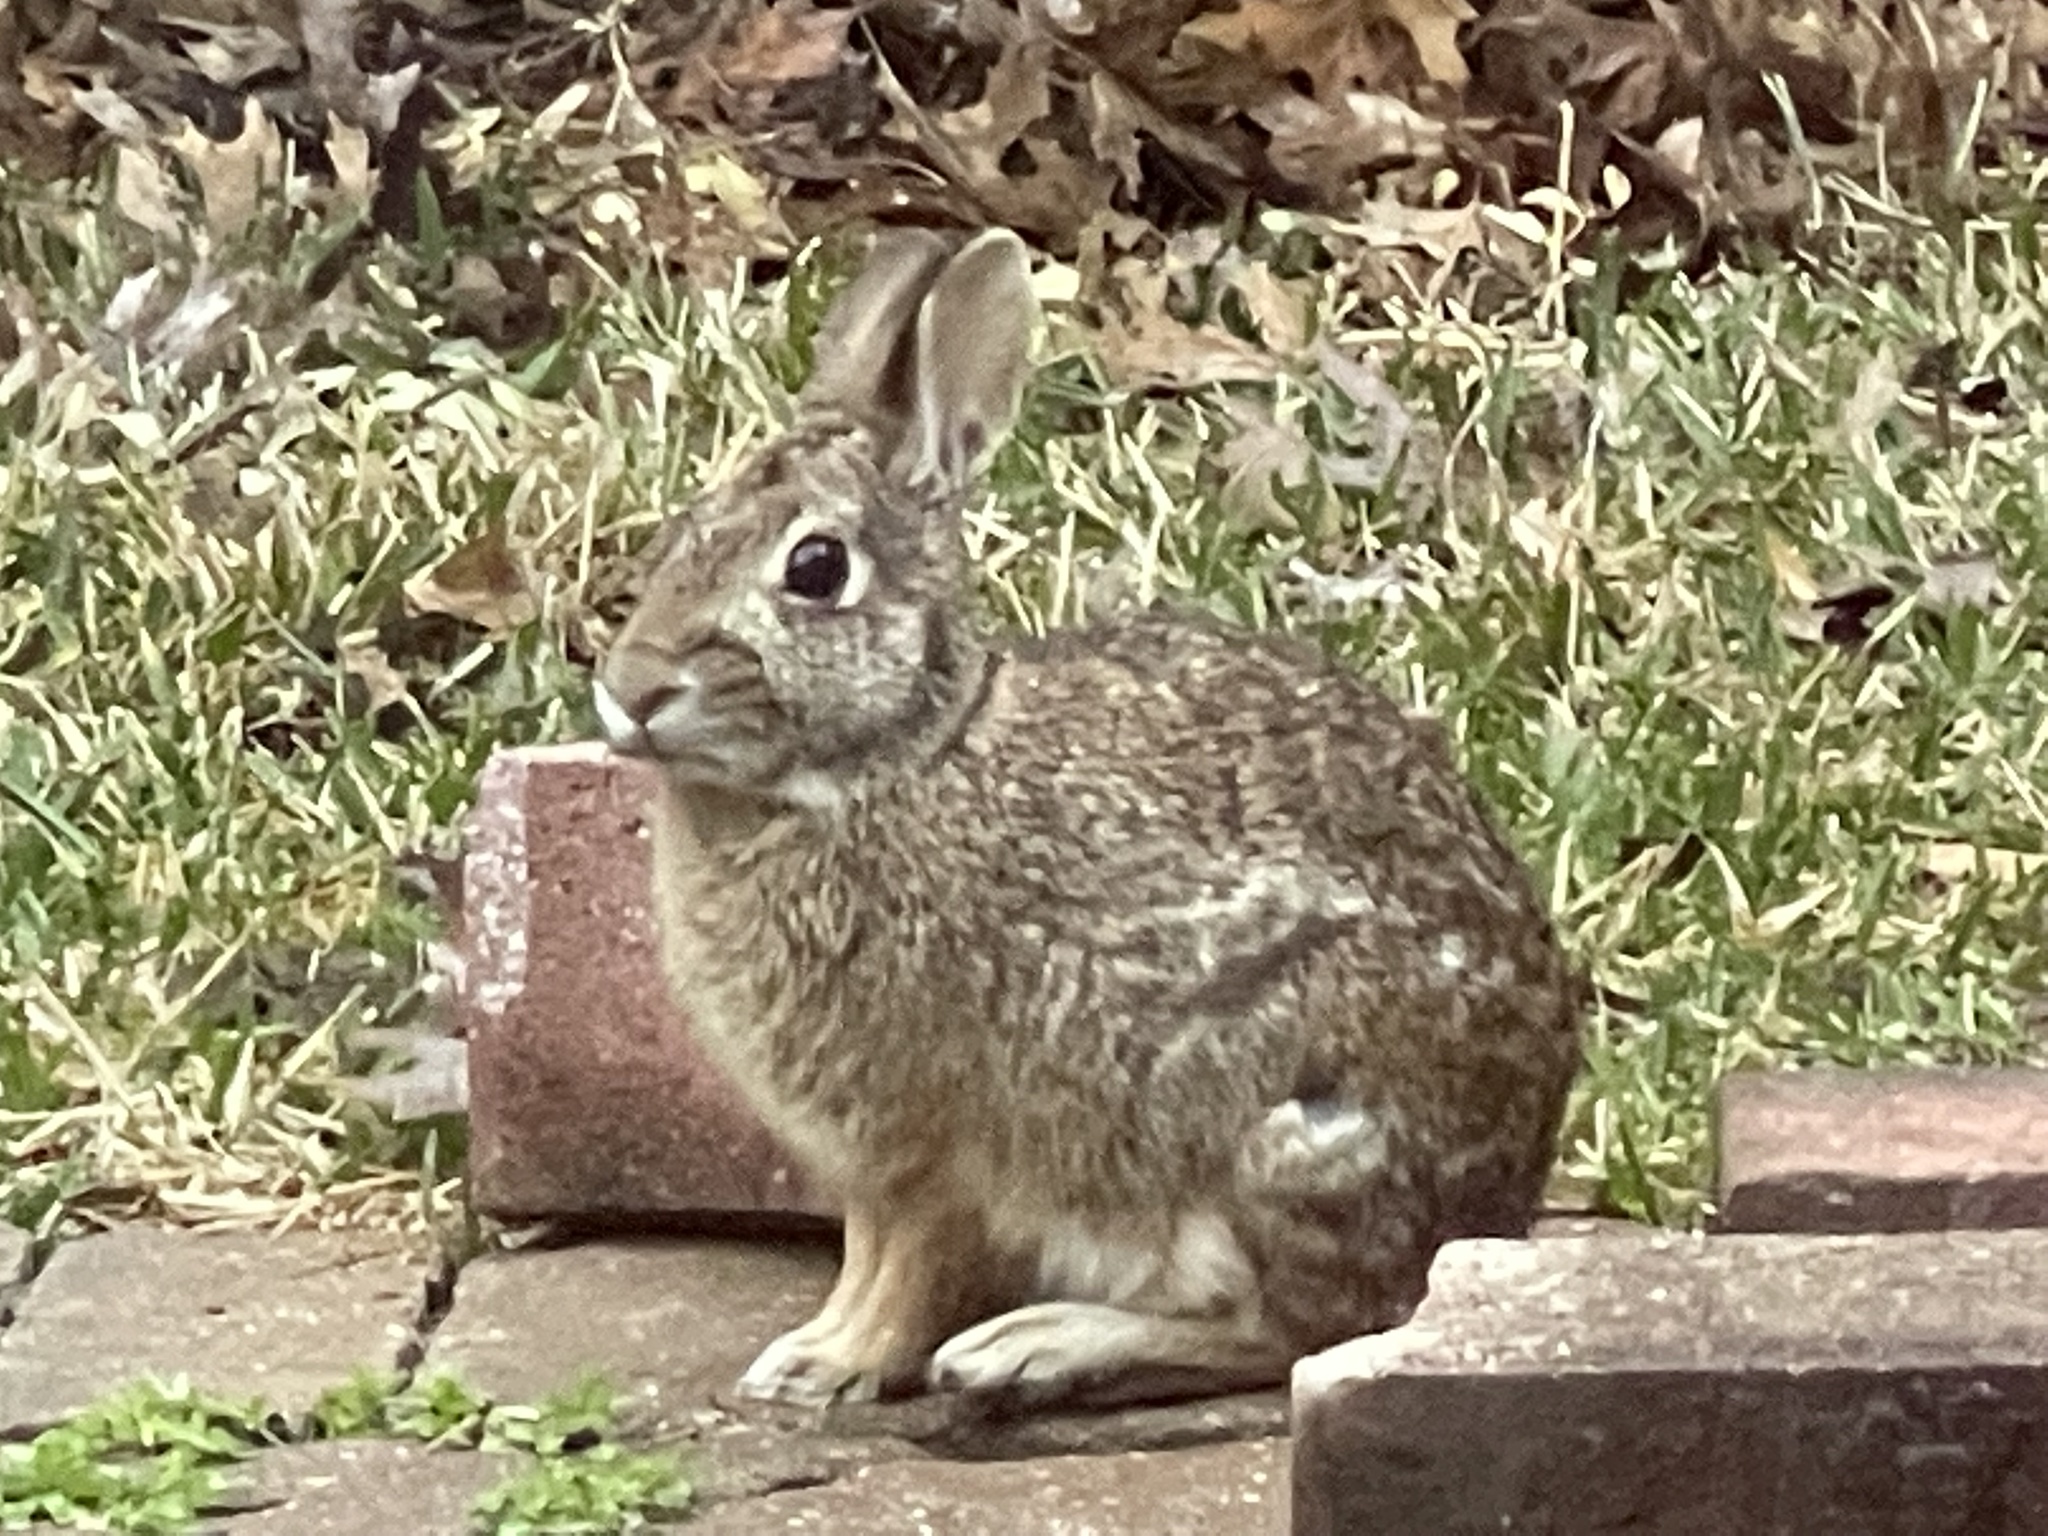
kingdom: Animalia
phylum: Chordata
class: Mammalia
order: Lagomorpha
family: Leporidae
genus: Sylvilagus
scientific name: Sylvilagus floridanus
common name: Eastern cottontail
